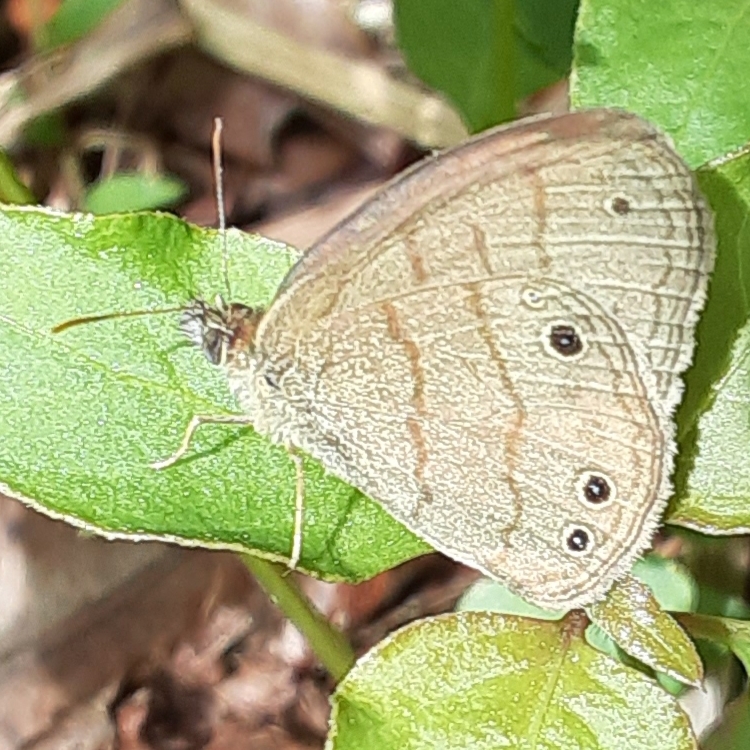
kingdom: Animalia
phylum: Arthropoda
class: Insecta
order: Lepidoptera
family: Nymphalidae
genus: Hermeuptychia
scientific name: Hermeuptychia intricata
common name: Intricate satyr
